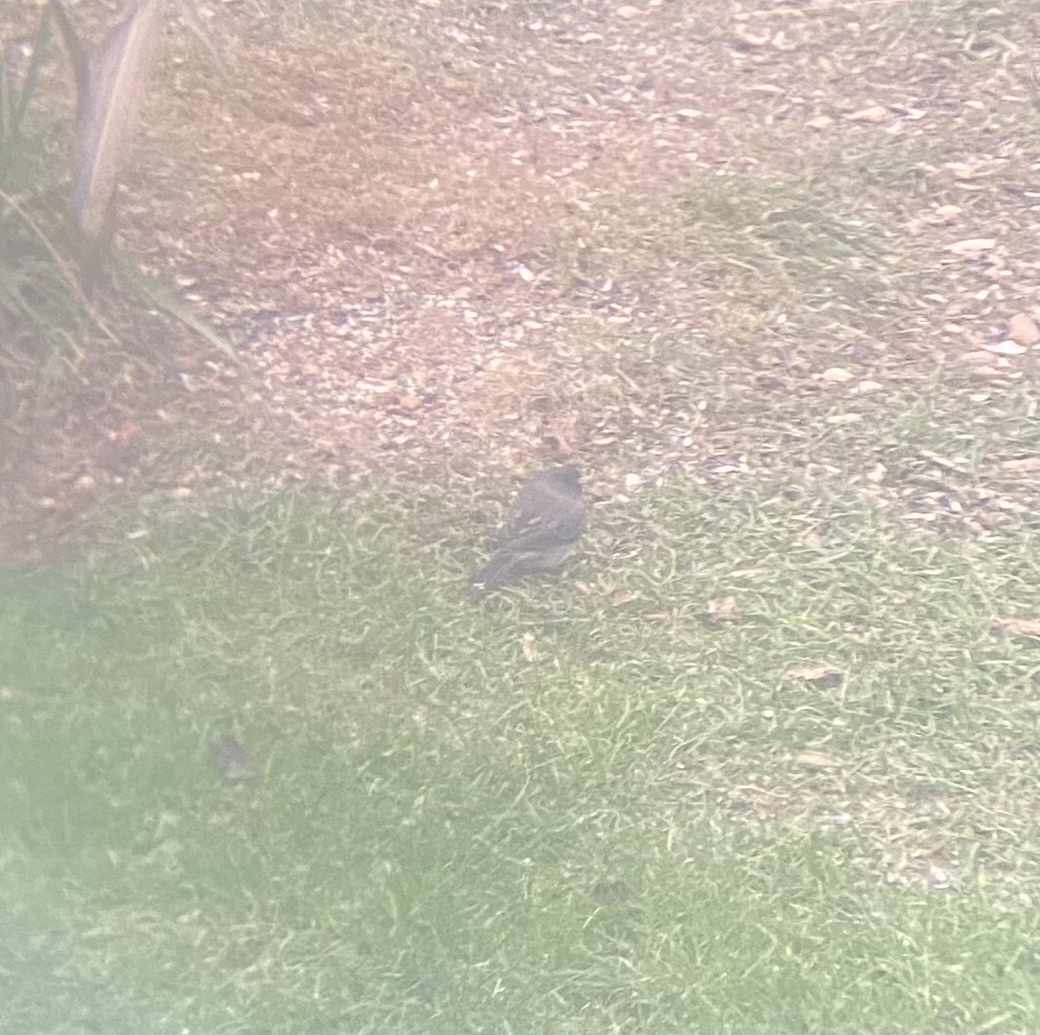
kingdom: Animalia
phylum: Chordata
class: Aves
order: Passeriformes
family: Passerellidae
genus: Junco
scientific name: Junco hyemalis
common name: Dark-eyed junco
